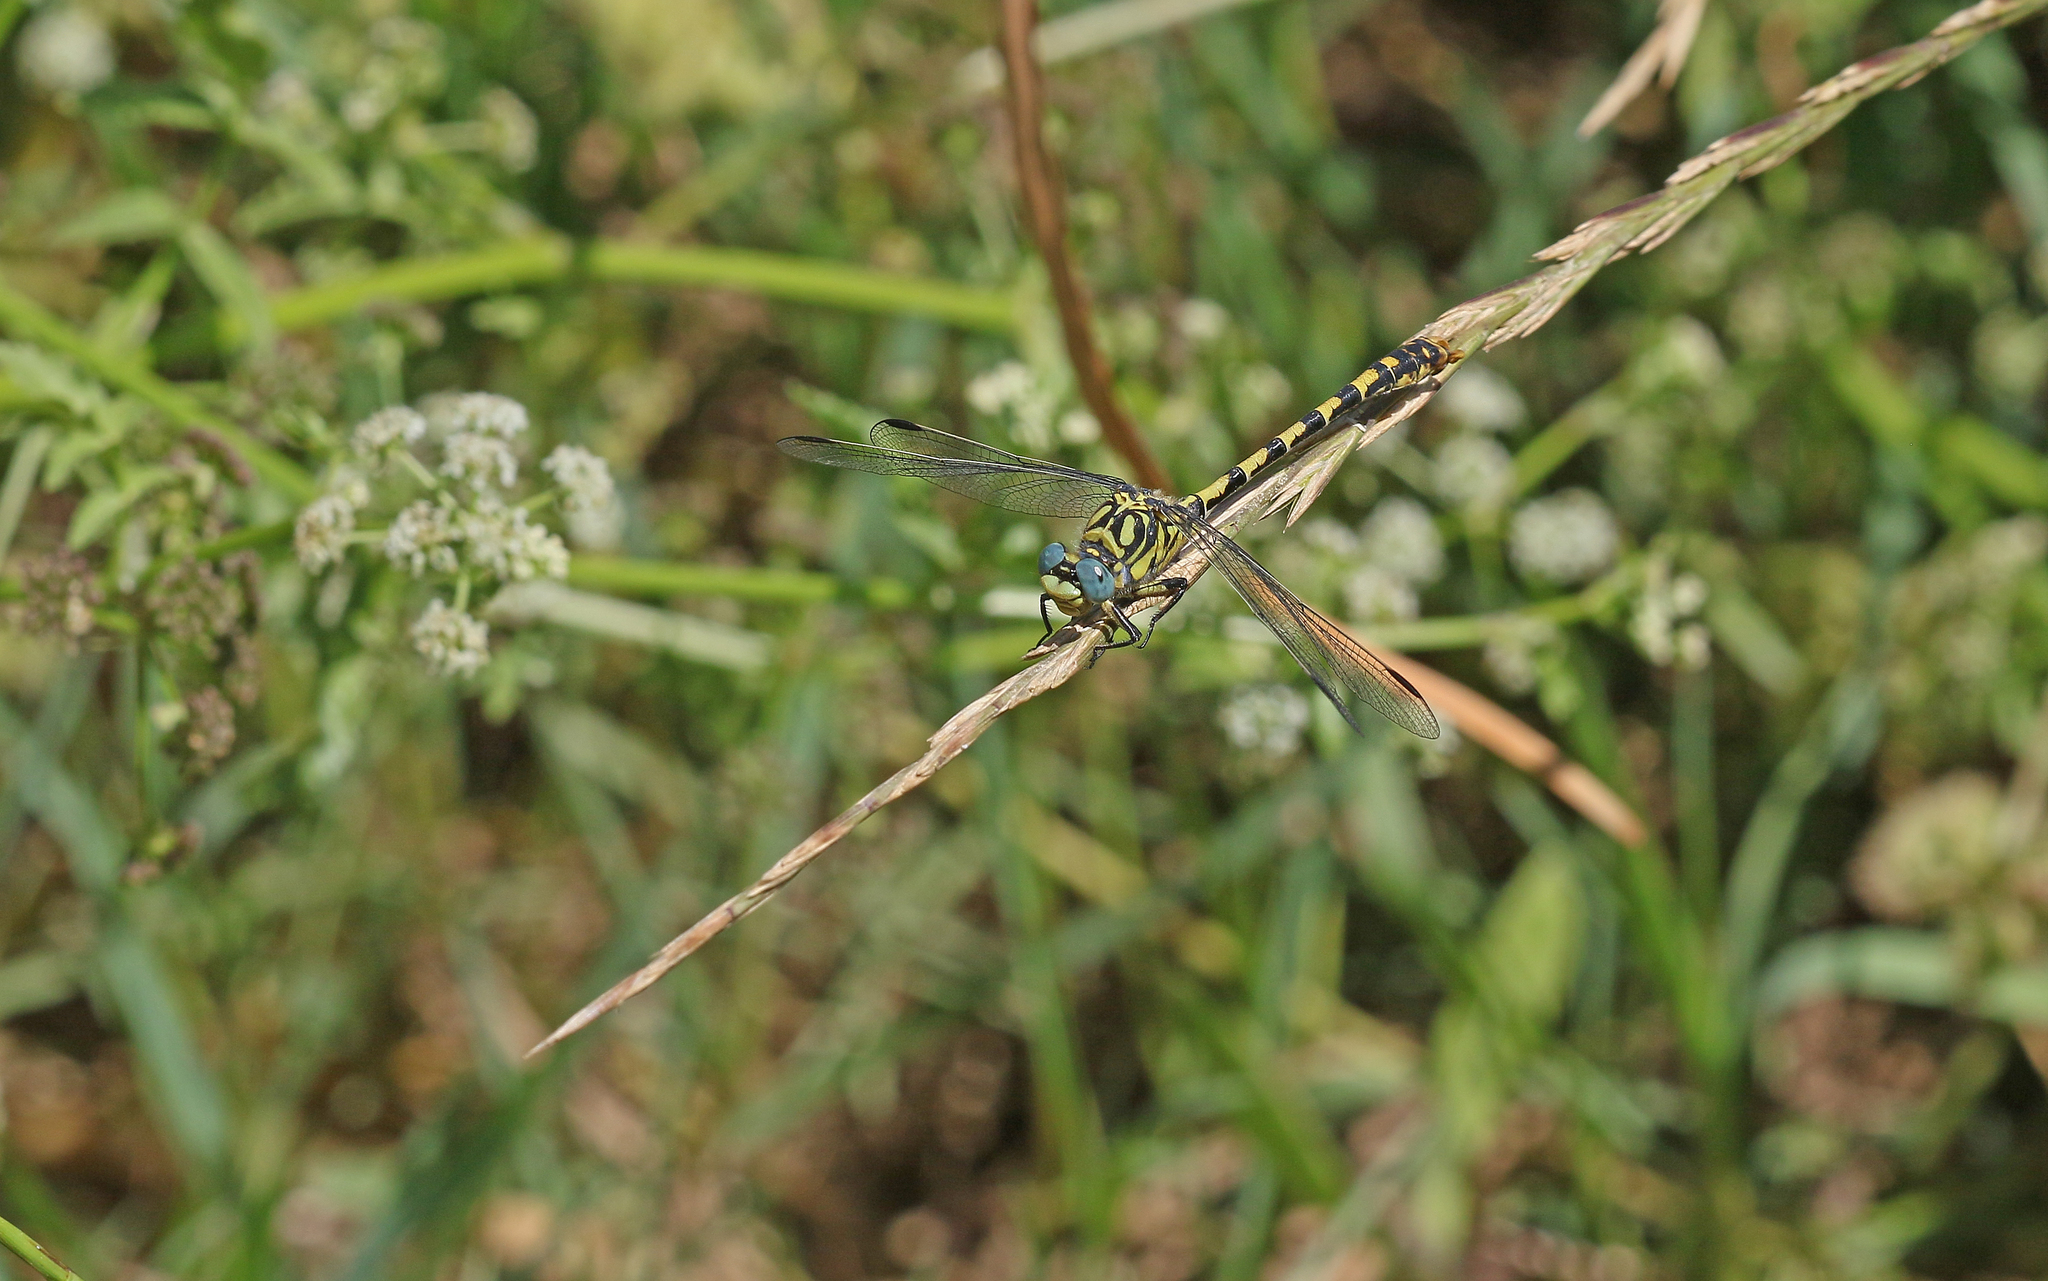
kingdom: Animalia
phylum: Arthropoda
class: Insecta
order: Odonata
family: Gomphidae
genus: Onychogomphus
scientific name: Onychogomphus forcipatus
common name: Small pincertail
